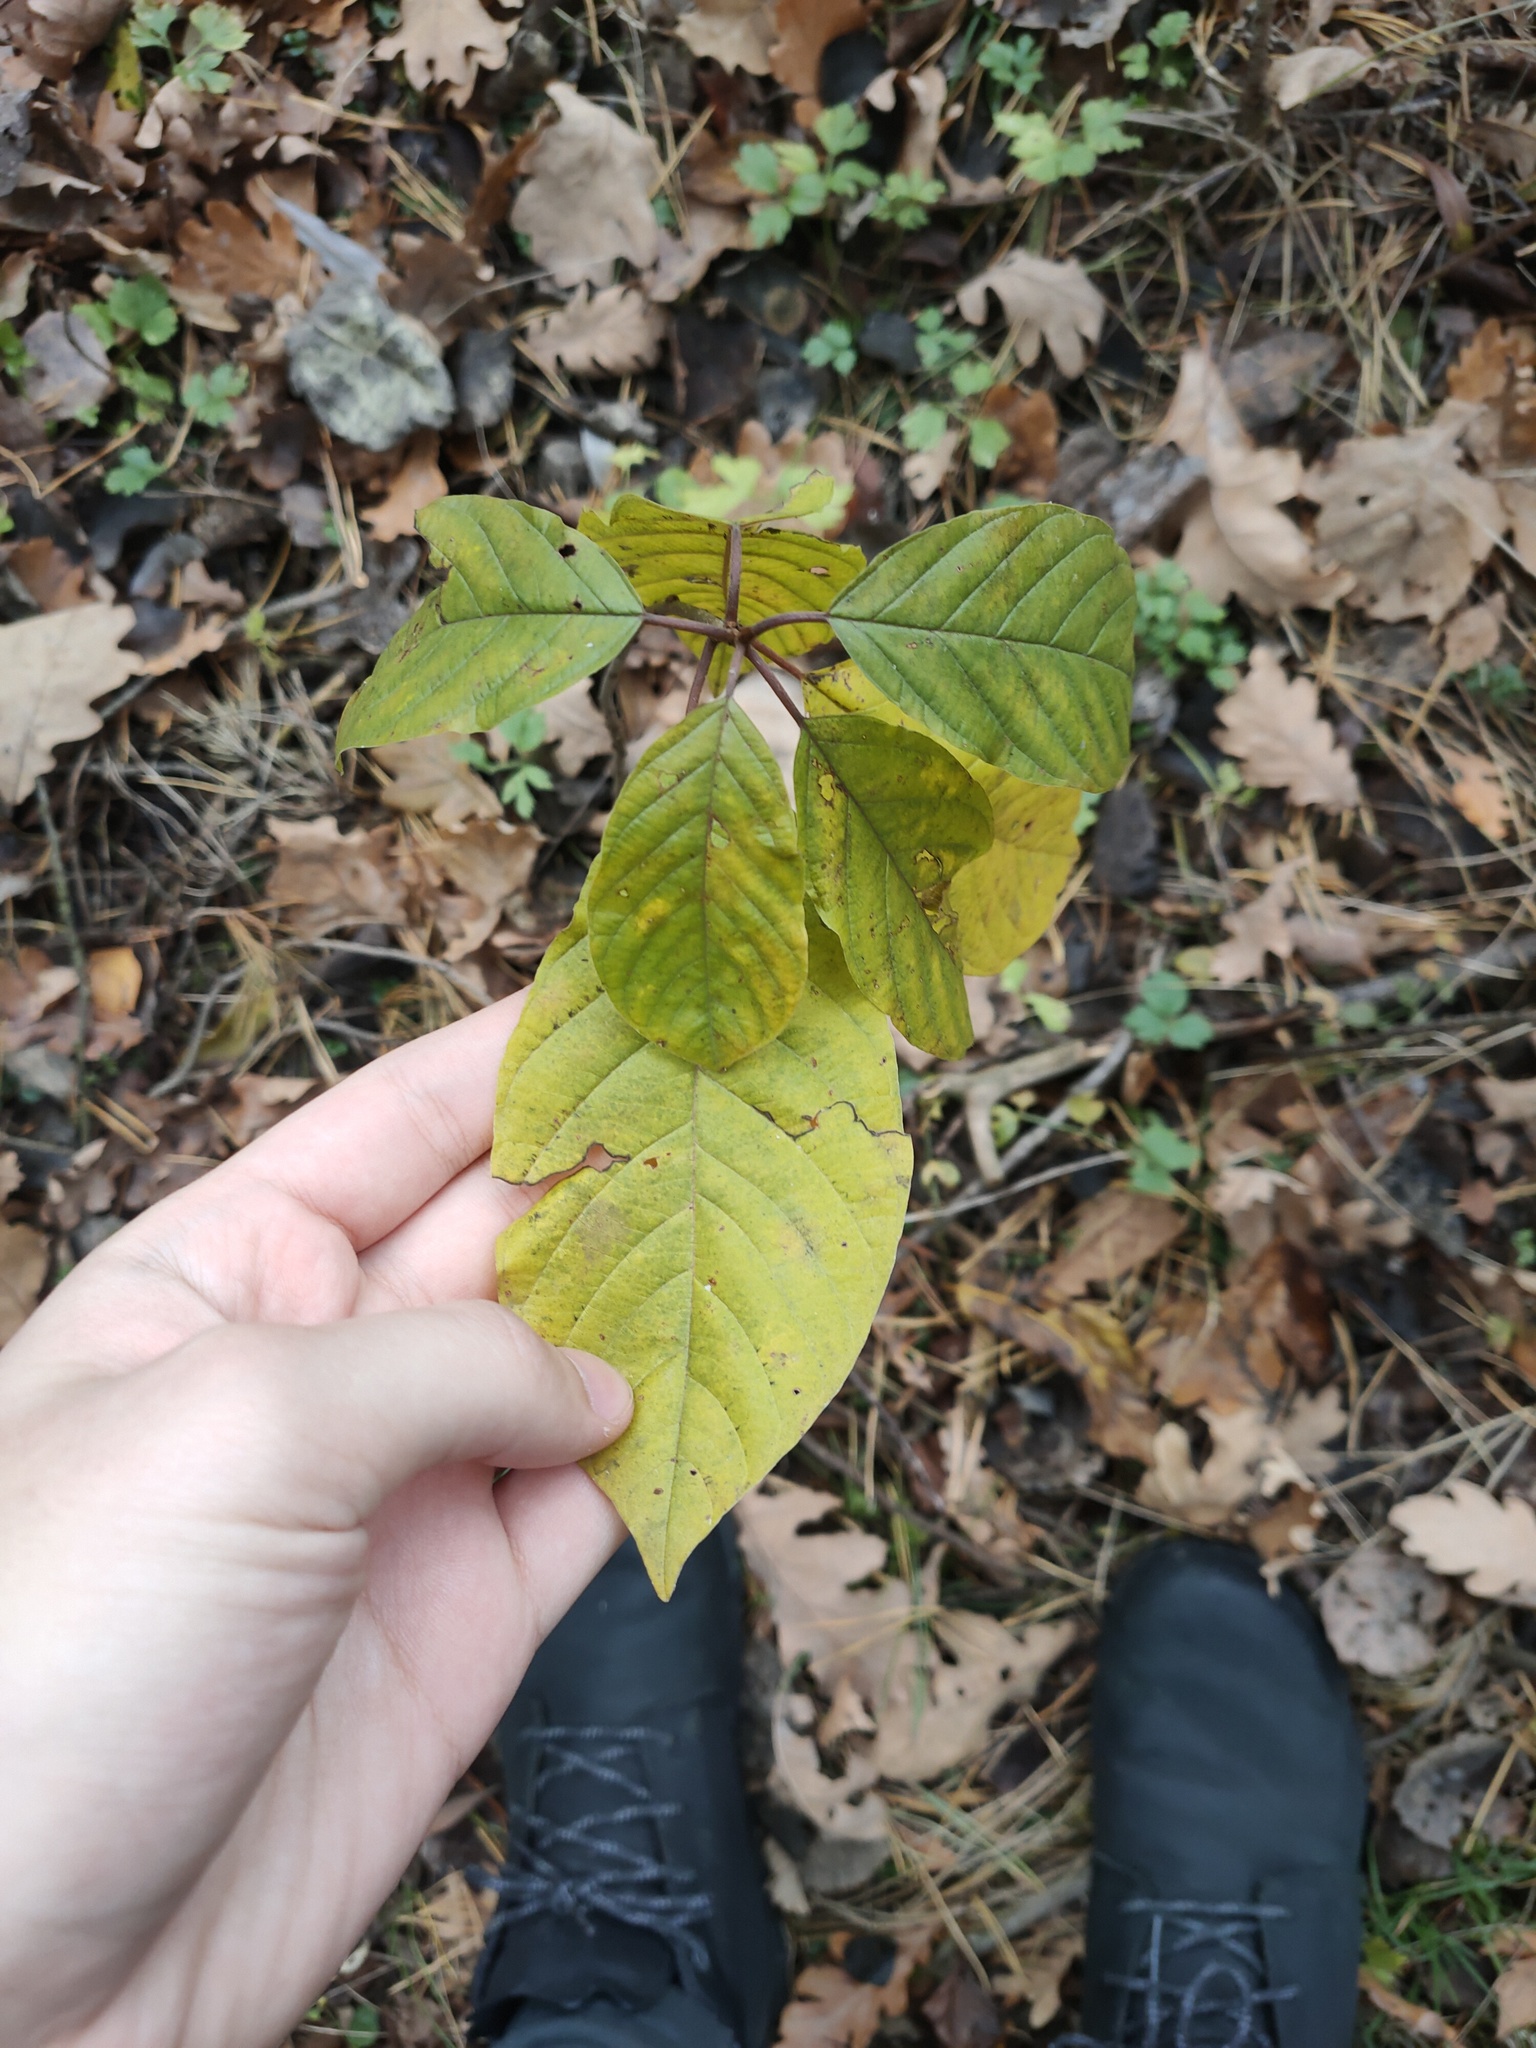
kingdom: Plantae
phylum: Tracheophyta
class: Magnoliopsida
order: Rosales
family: Rhamnaceae
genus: Frangula
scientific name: Frangula alnus
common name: Alder buckthorn
